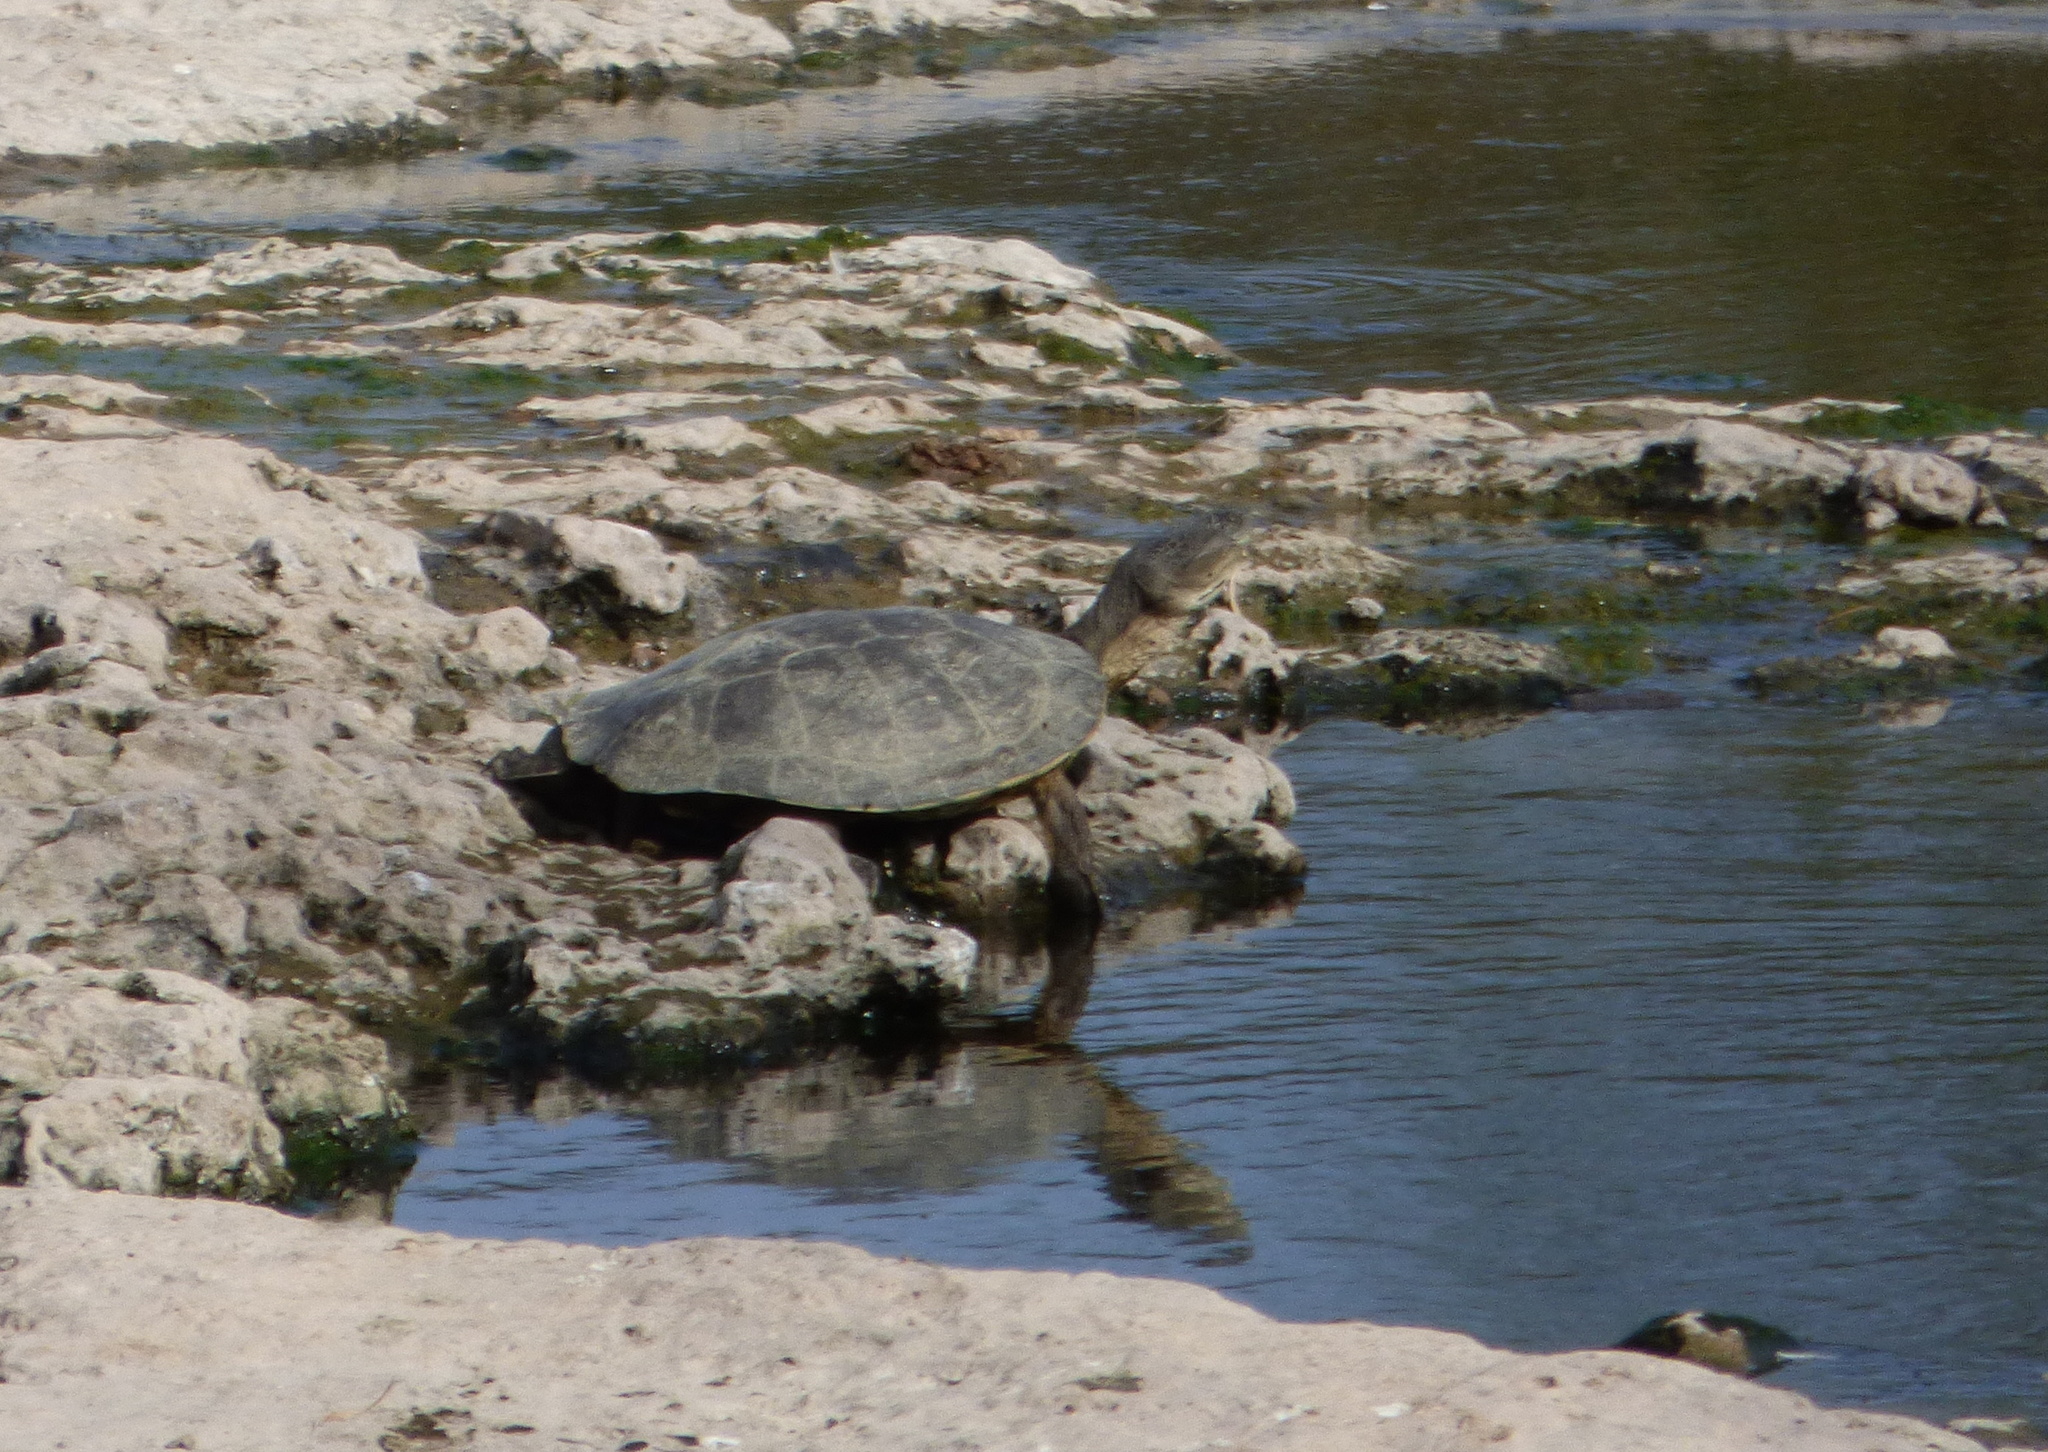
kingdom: Animalia
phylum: Chordata
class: Testudines
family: Chelidae
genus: Phrynops
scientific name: Phrynops hilarii
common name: Side-necked turtle of saint hillaire
